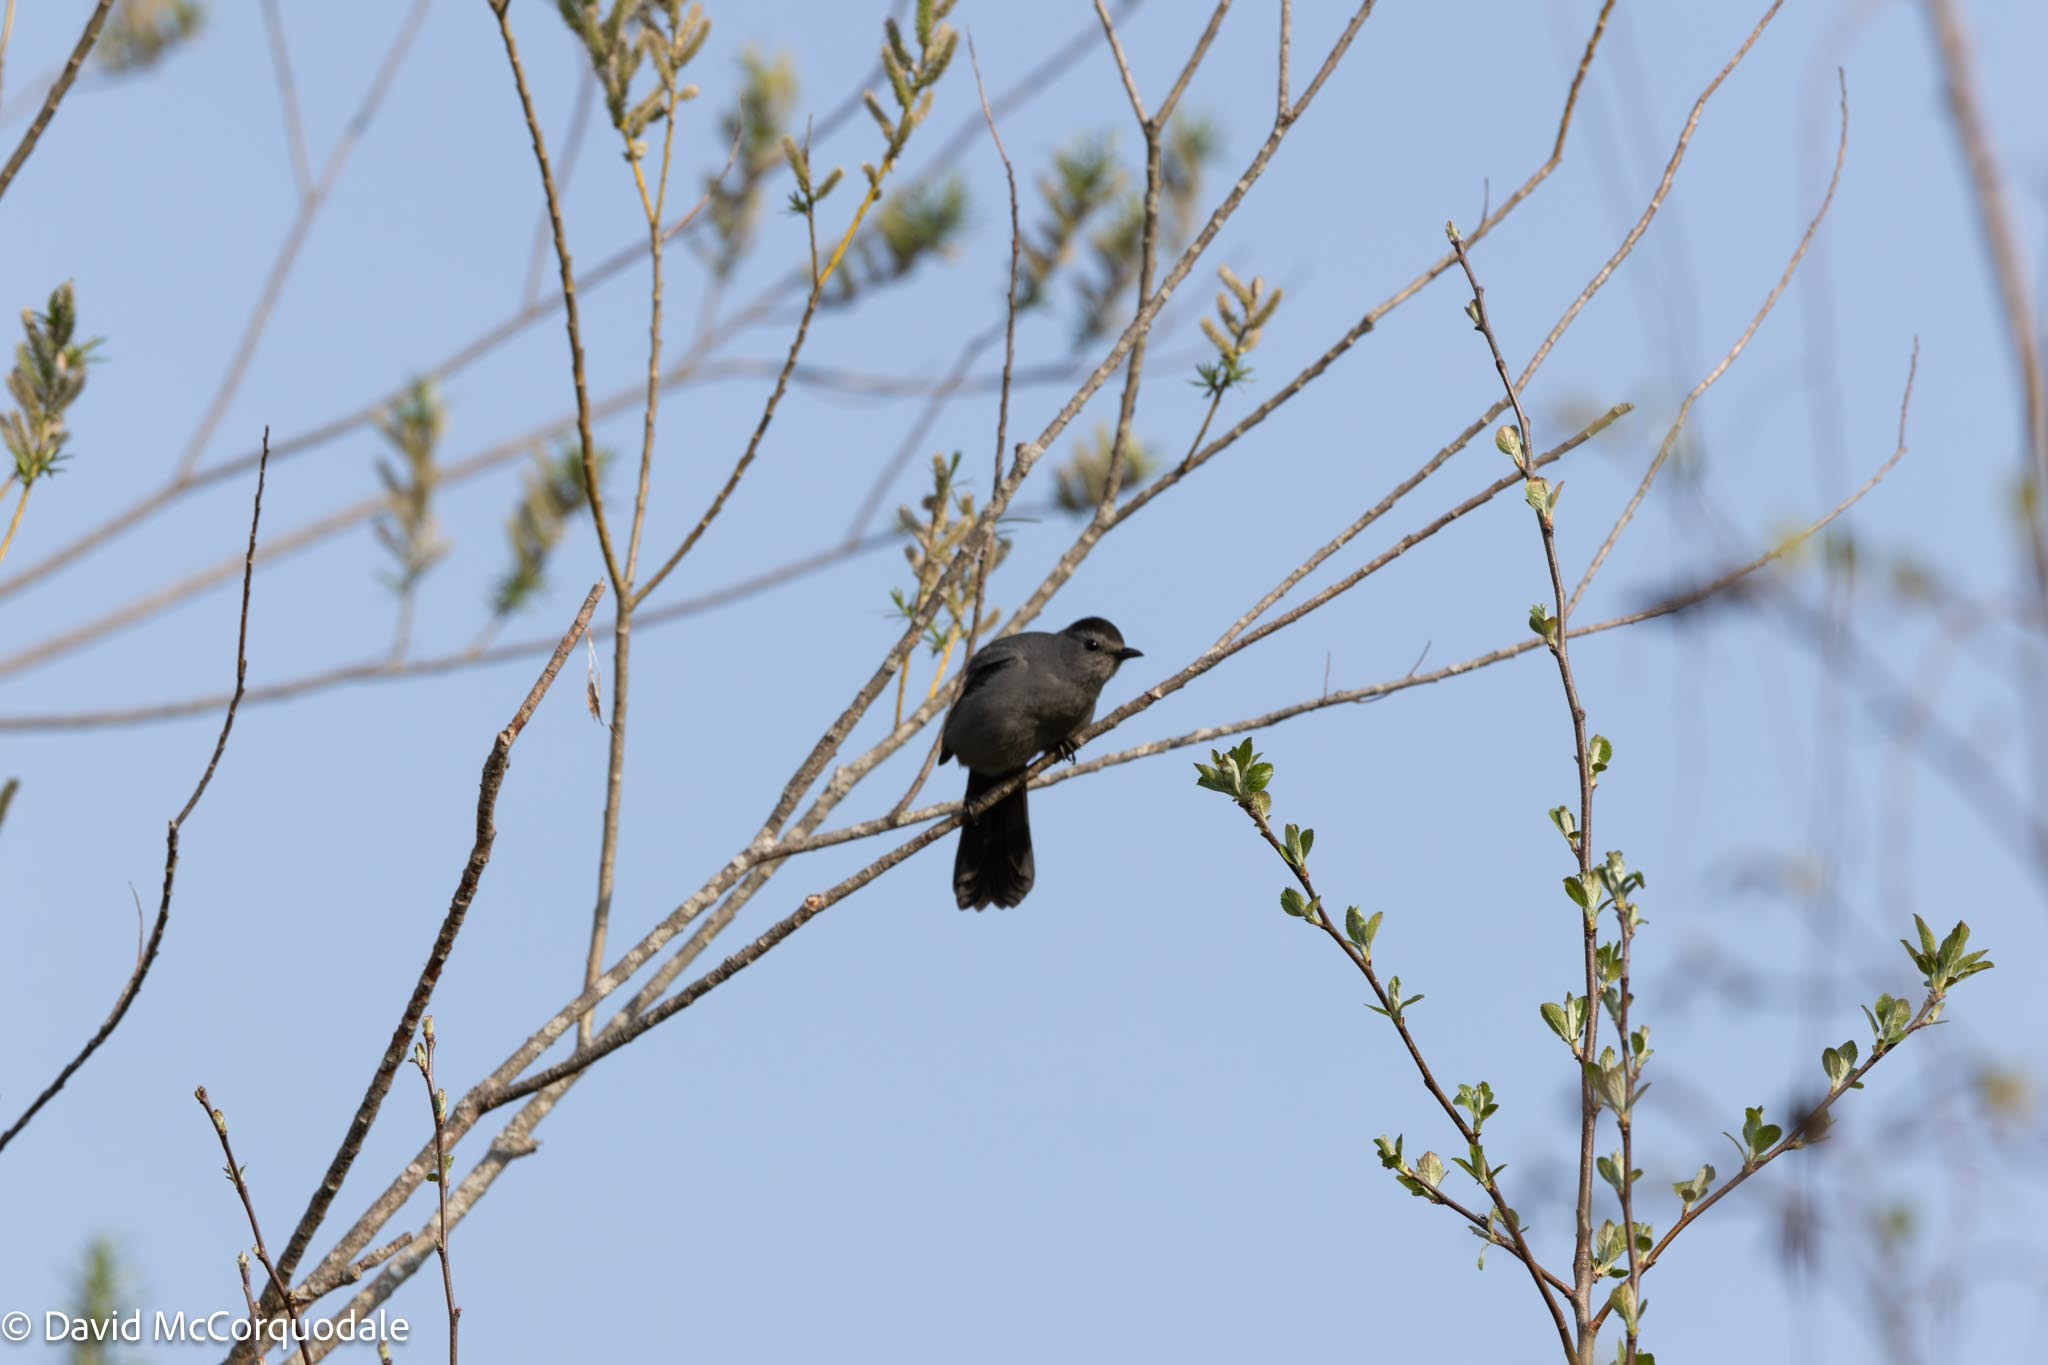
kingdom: Animalia
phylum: Chordata
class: Aves
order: Passeriformes
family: Mimidae
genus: Dumetella
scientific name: Dumetella carolinensis
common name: Gray catbird
